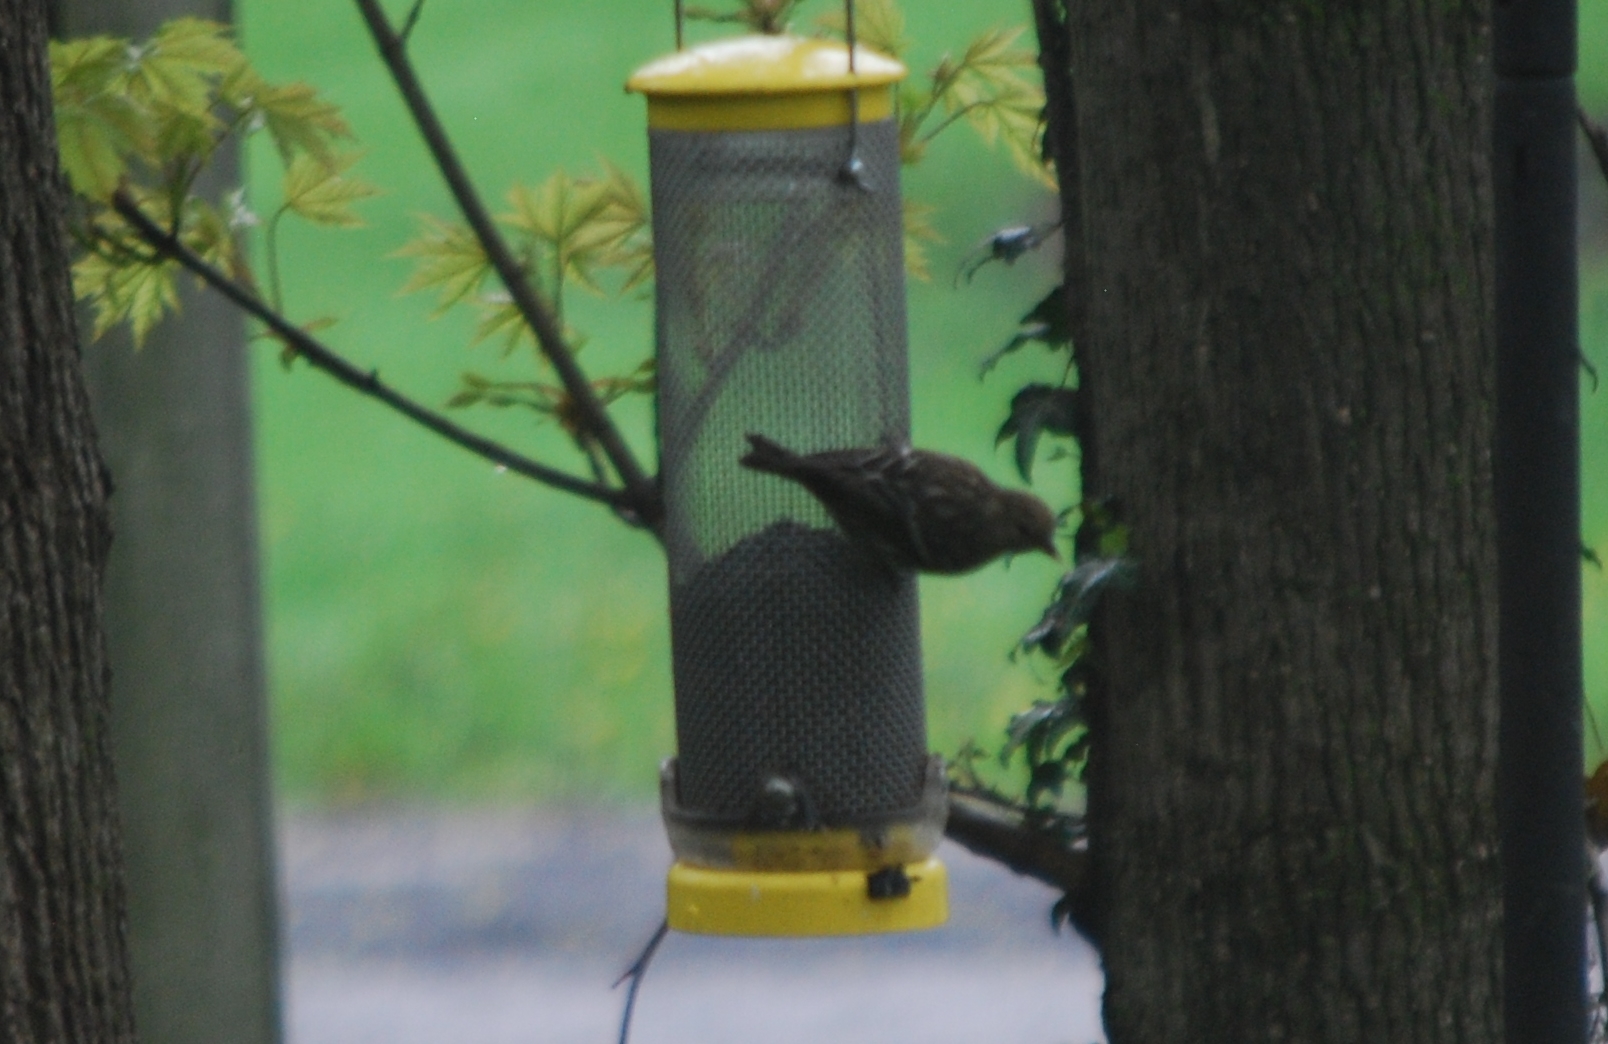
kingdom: Animalia
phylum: Chordata
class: Aves
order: Passeriformes
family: Fringillidae
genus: Spinus
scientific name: Spinus pinus
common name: Pine siskin
